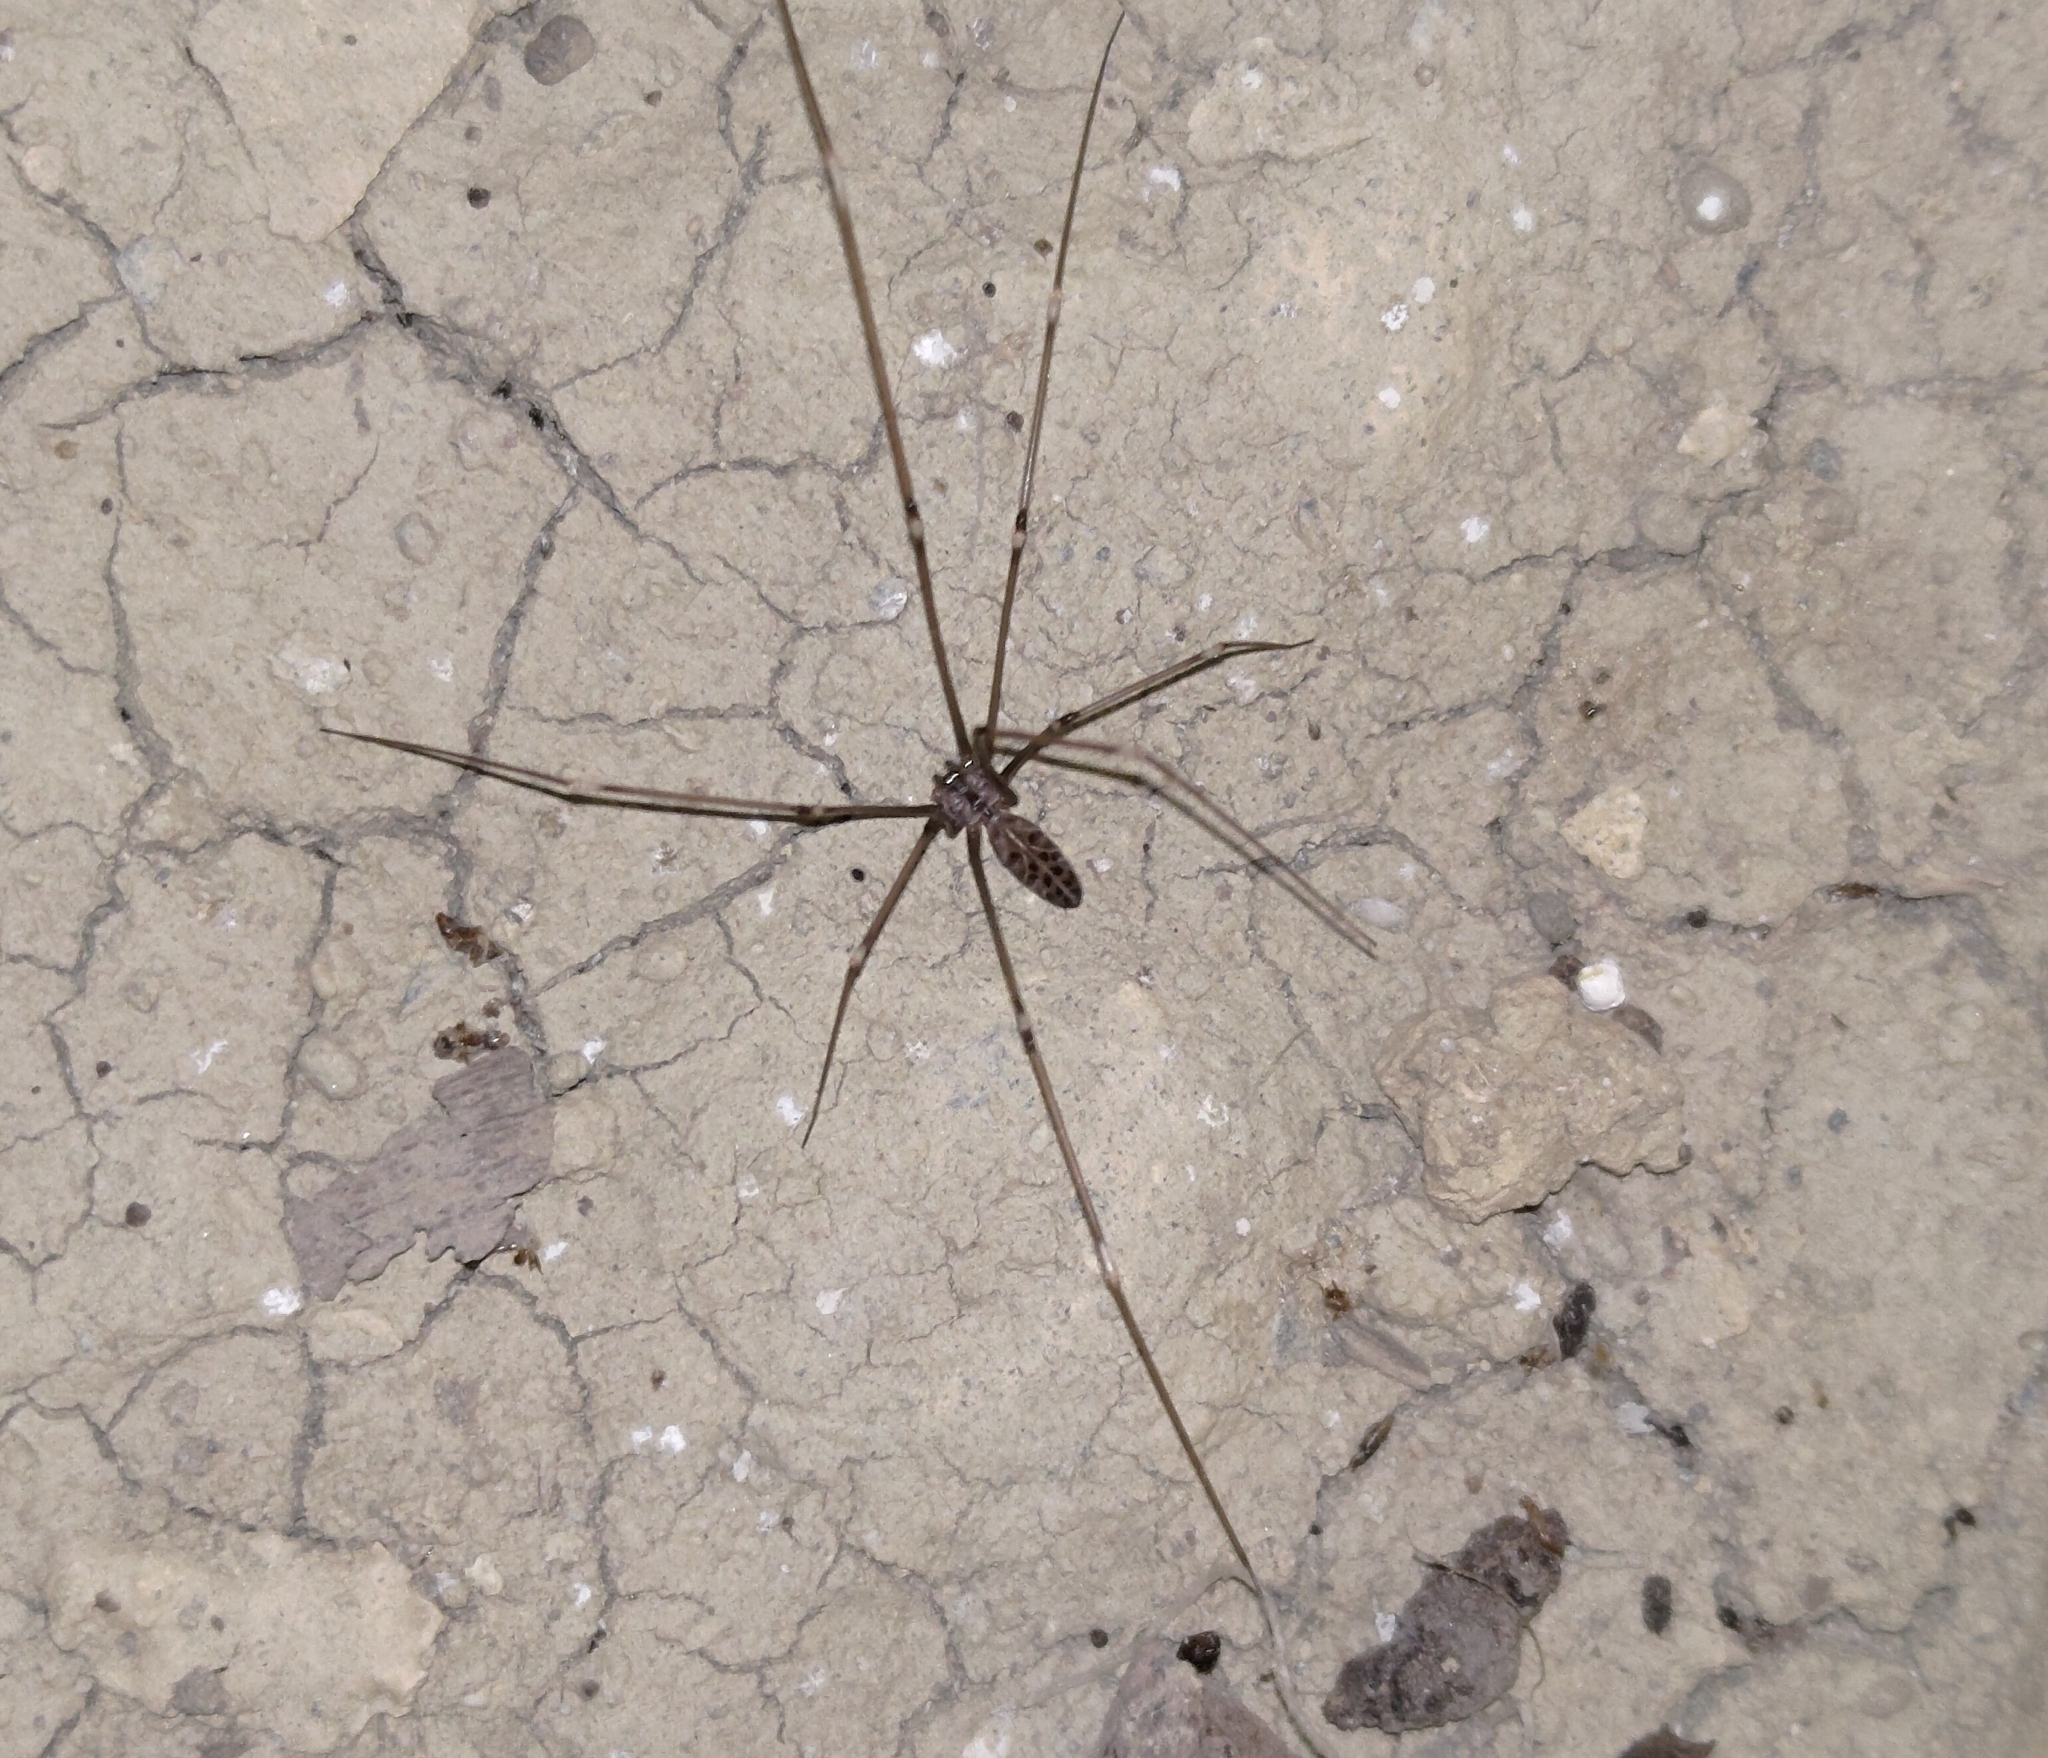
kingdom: Animalia
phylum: Arthropoda
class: Arachnida
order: Araneae
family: Pholcidae
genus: Smeringopus
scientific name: Smeringopus pallidus
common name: Cellar spider
